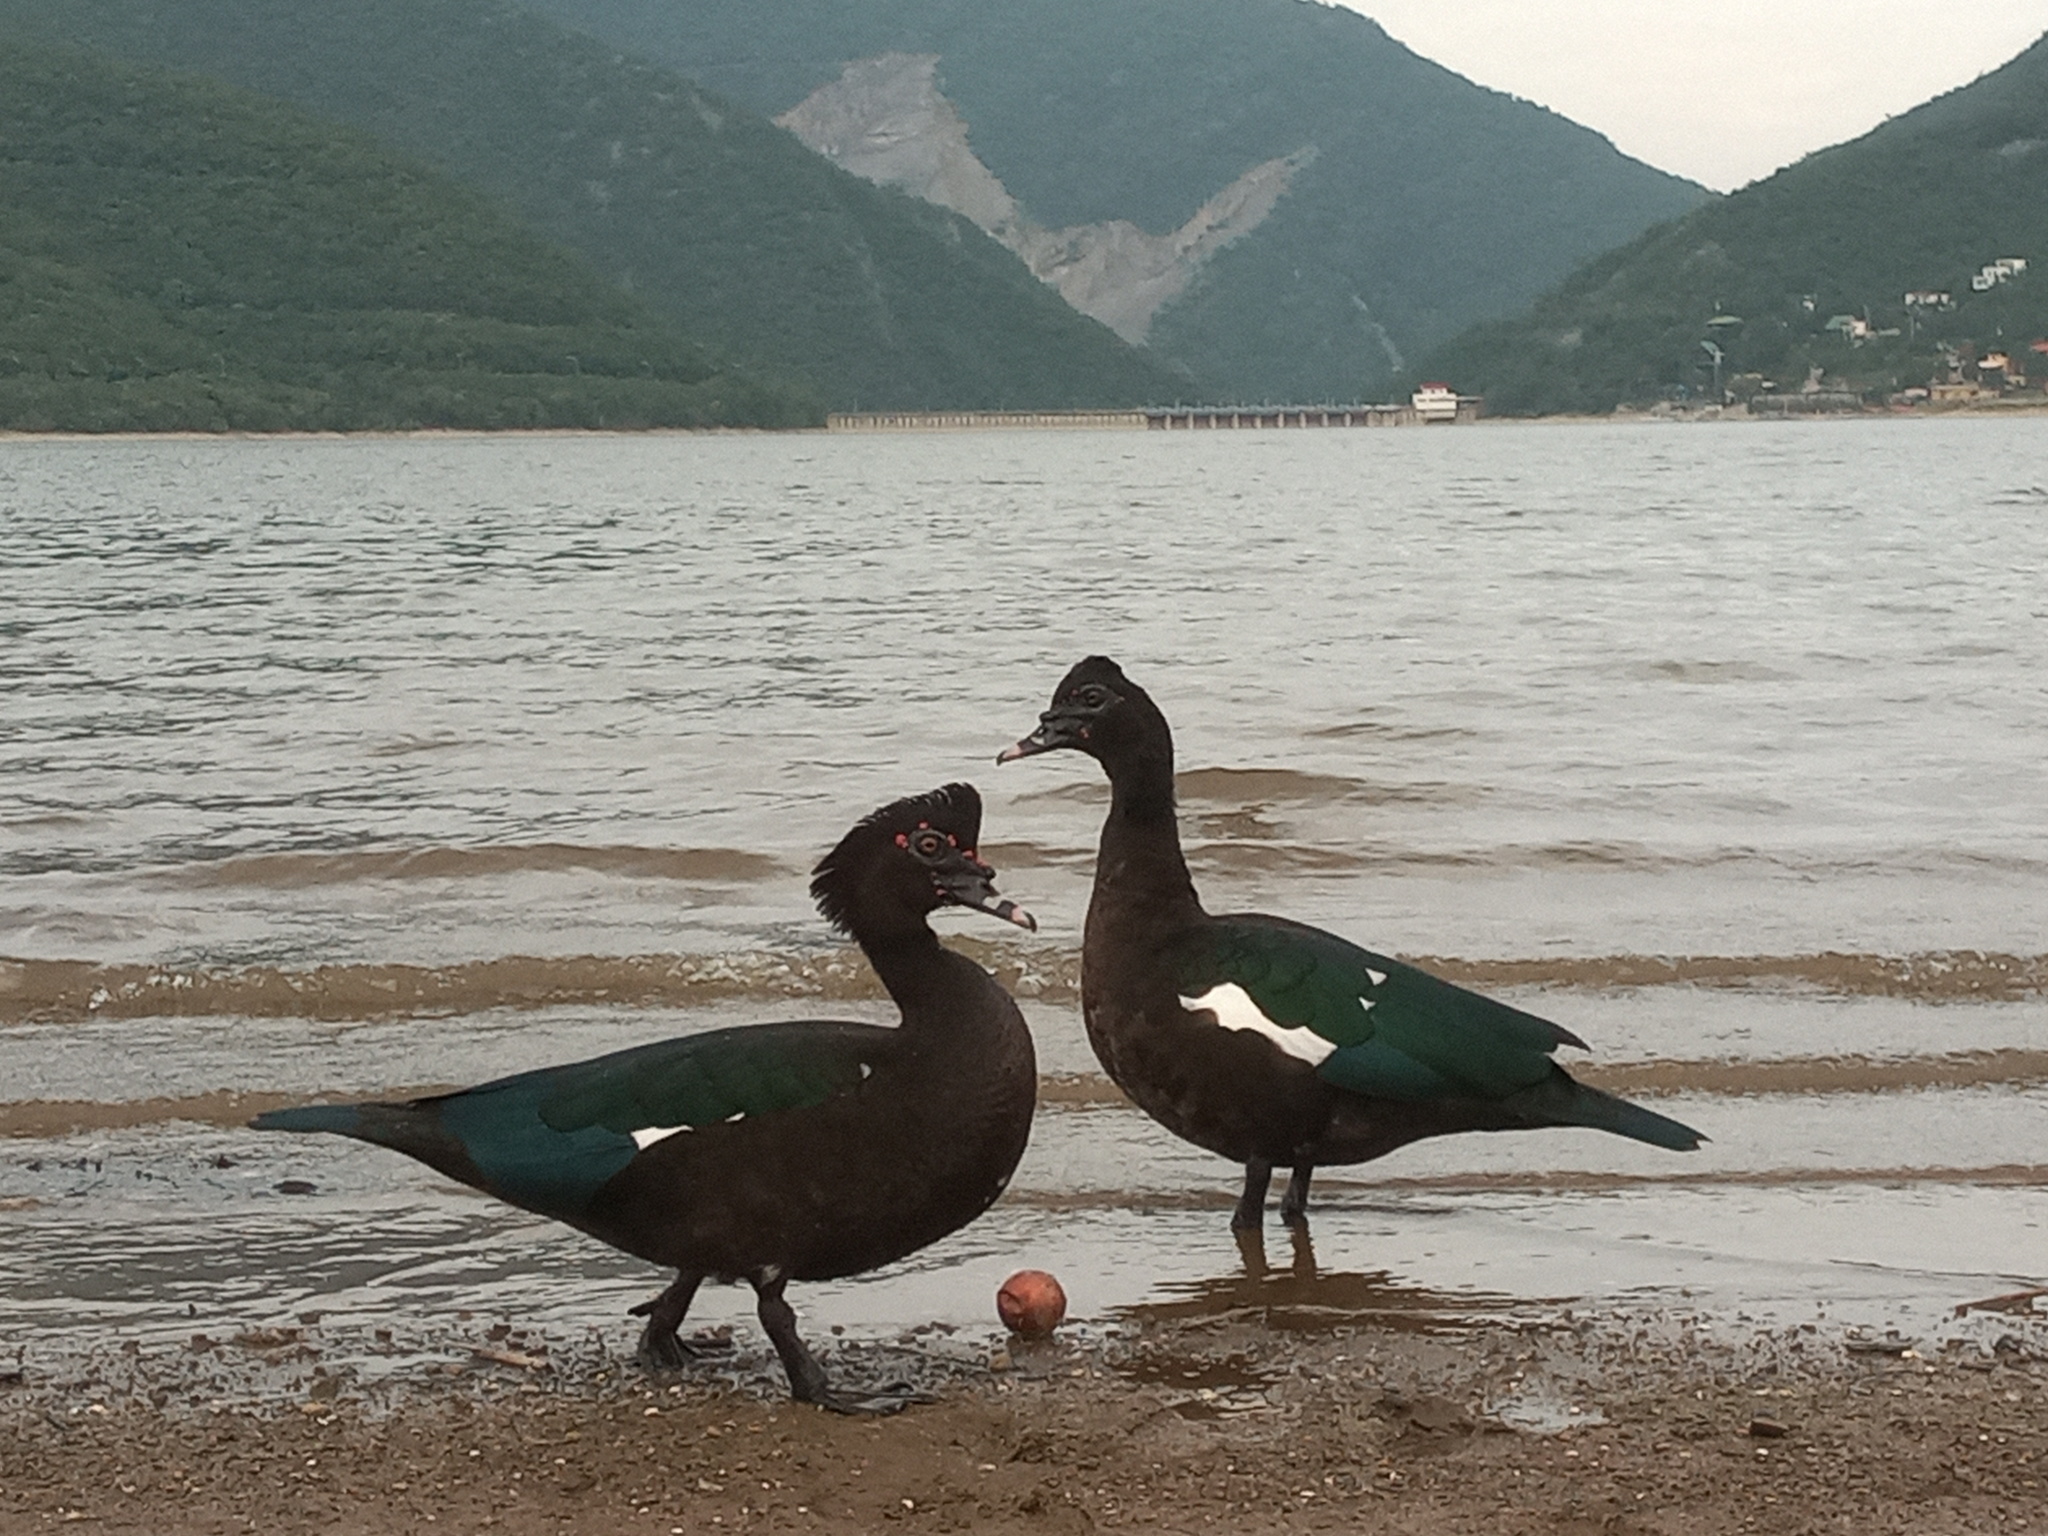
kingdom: Animalia
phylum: Chordata
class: Aves
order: Anseriformes
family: Anatidae
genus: Cairina
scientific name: Cairina moschata
